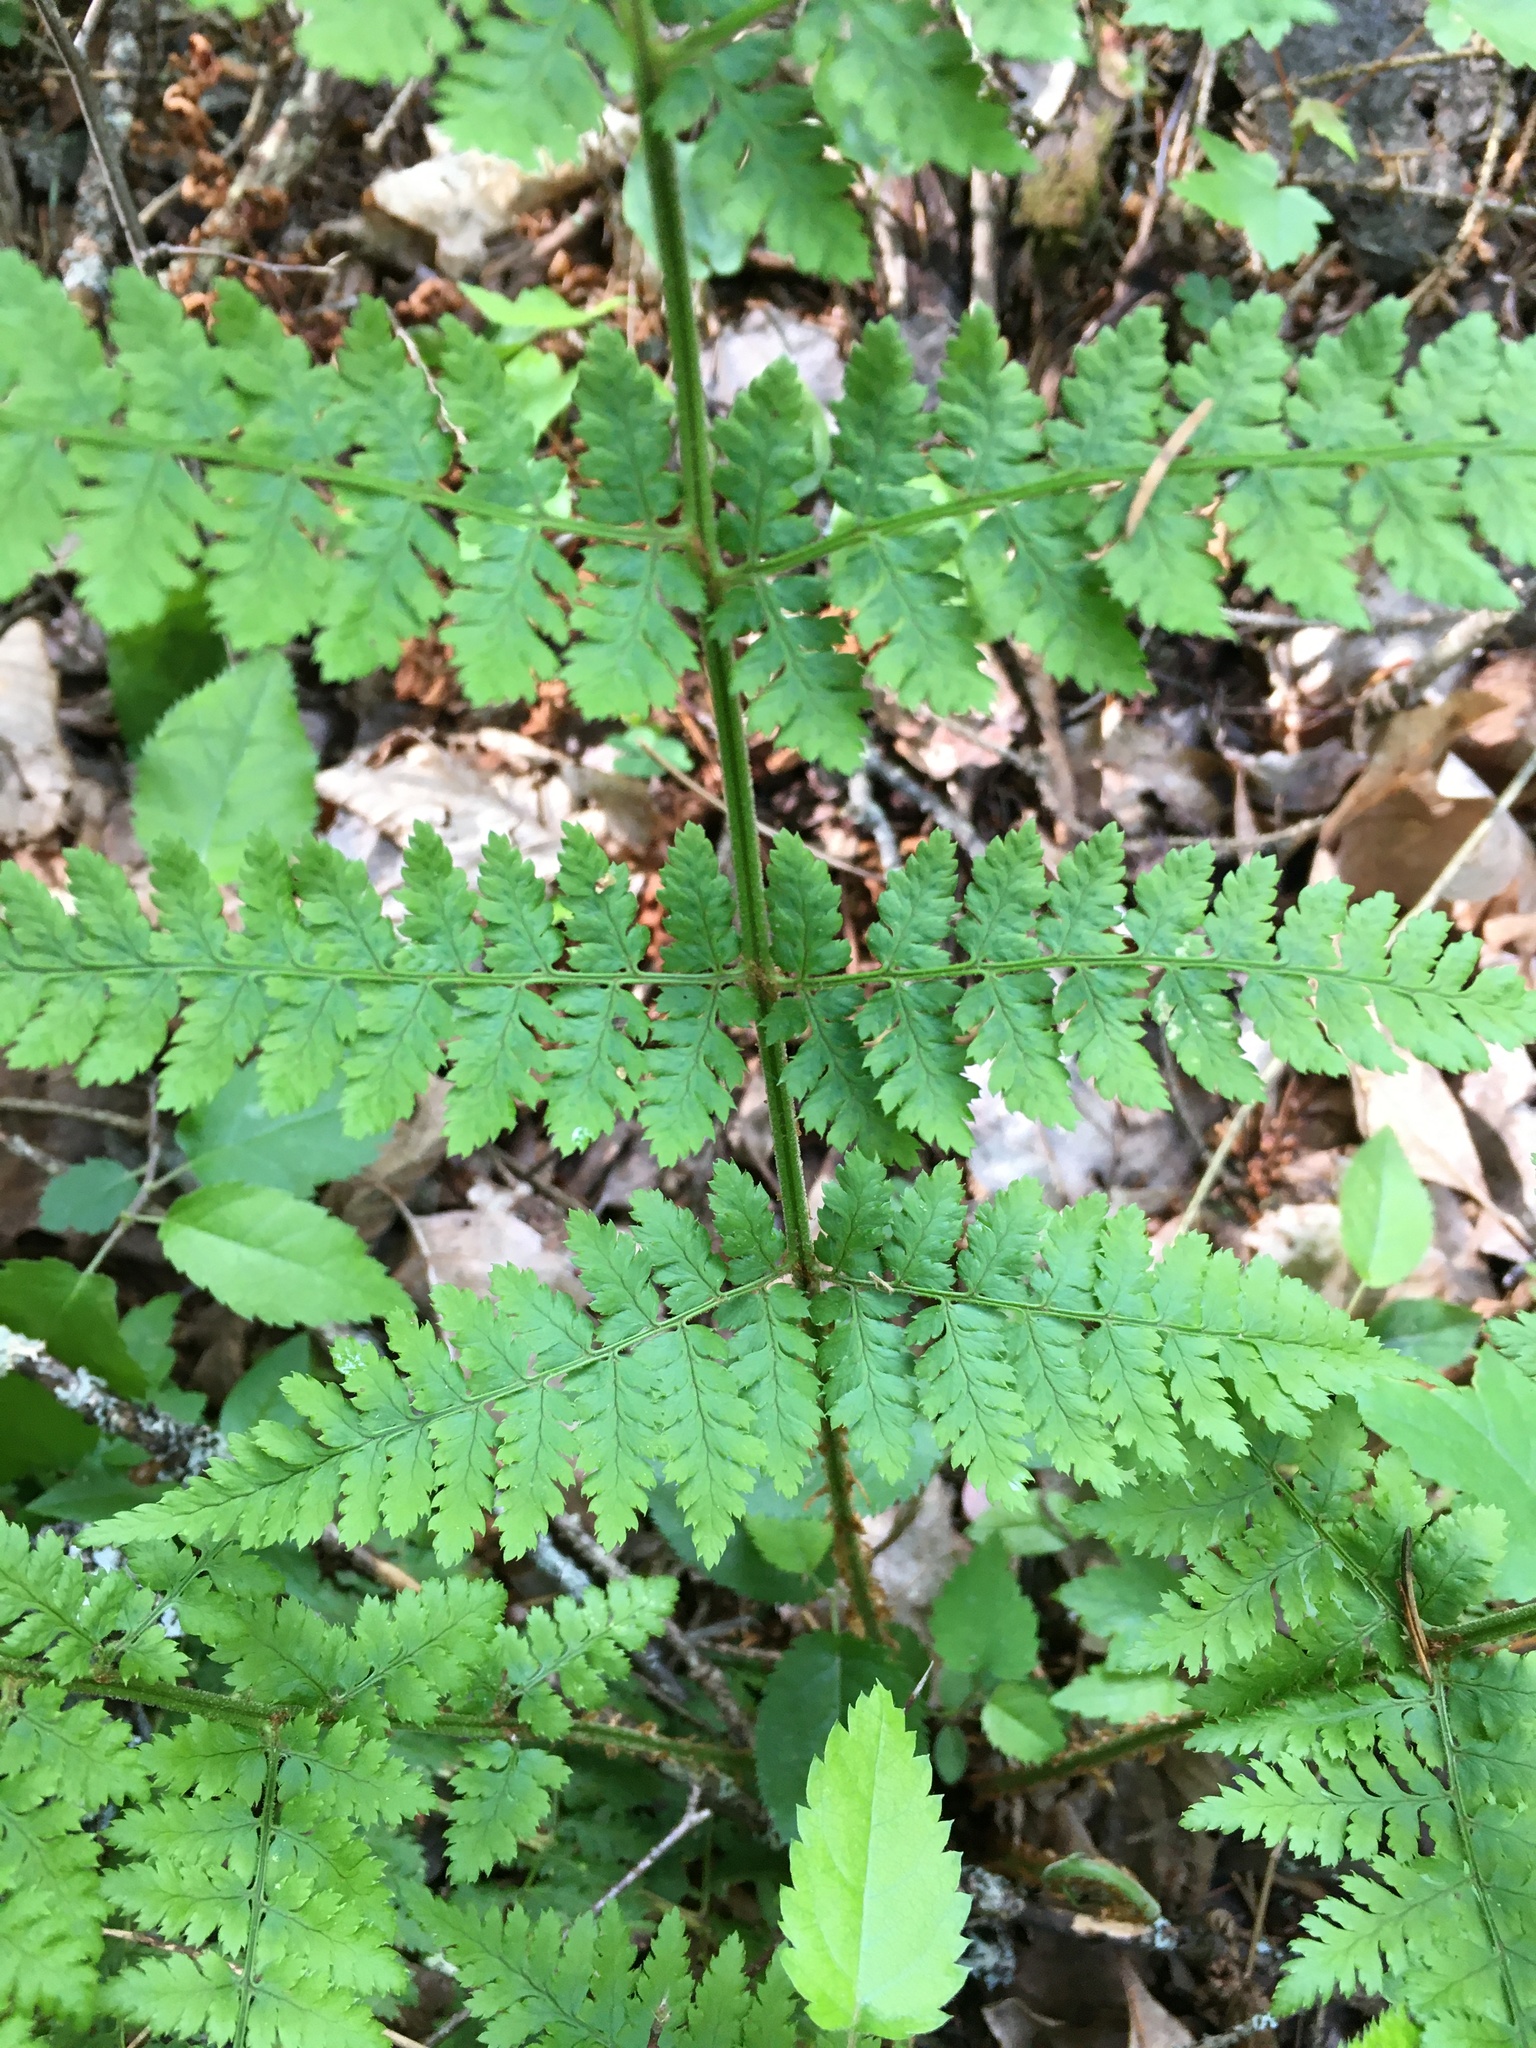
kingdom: Plantae
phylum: Tracheophyta
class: Polypodiopsida
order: Polypodiales
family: Dryopteridaceae
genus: Dryopteris
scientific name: Dryopteris intermedia
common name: Evergreen wood fern
